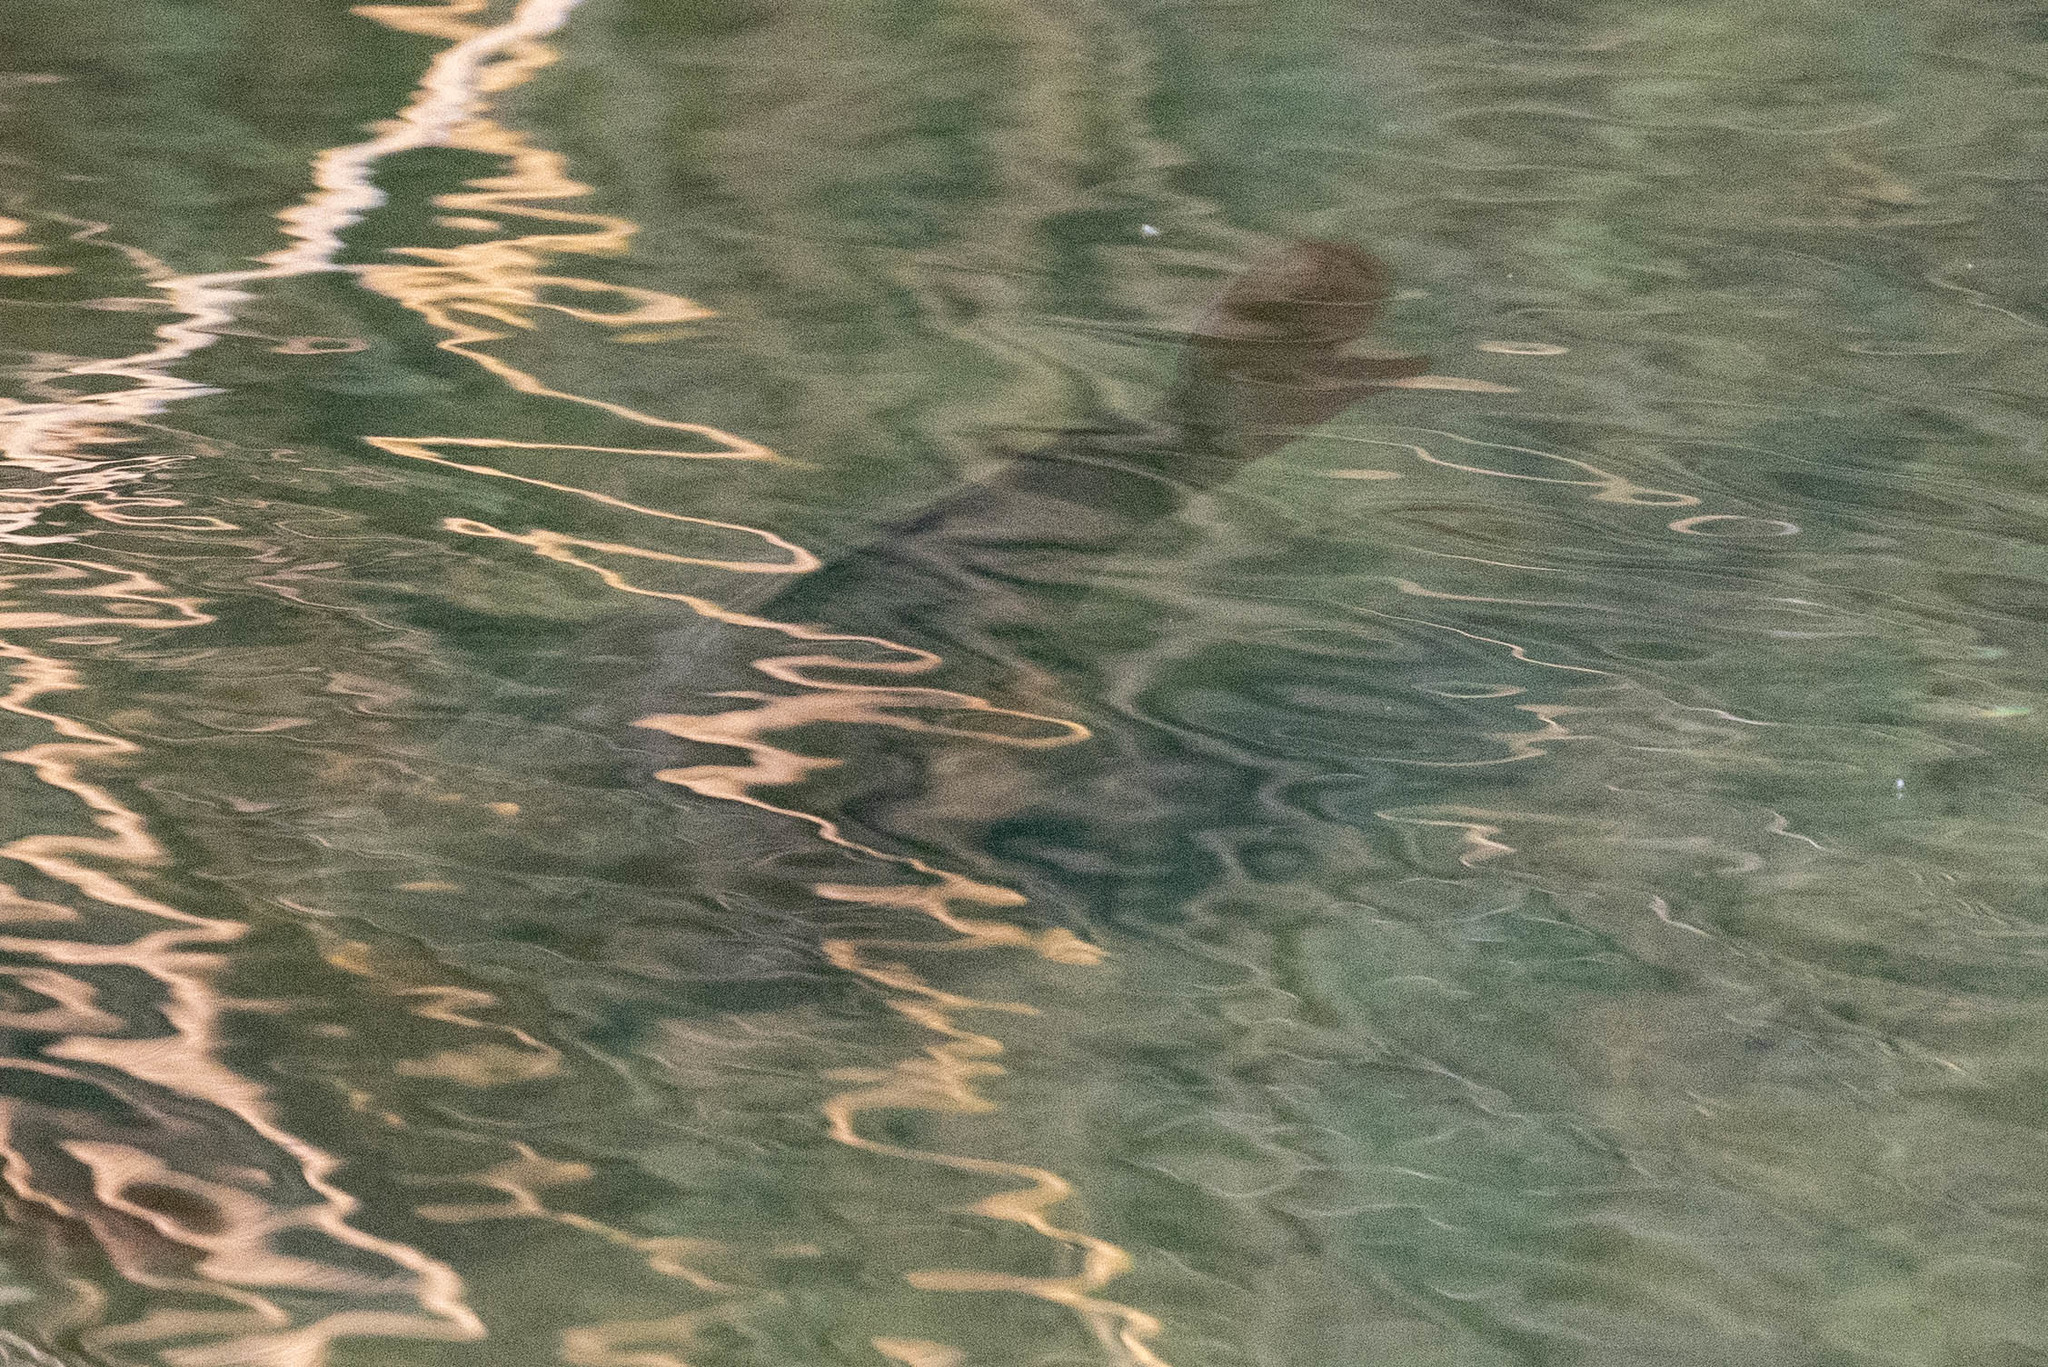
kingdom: Animalia
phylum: Chordata
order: Cypriniformes
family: Cyprinidae
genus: Cyprinus
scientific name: Cyprinus carpio
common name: Common carp
